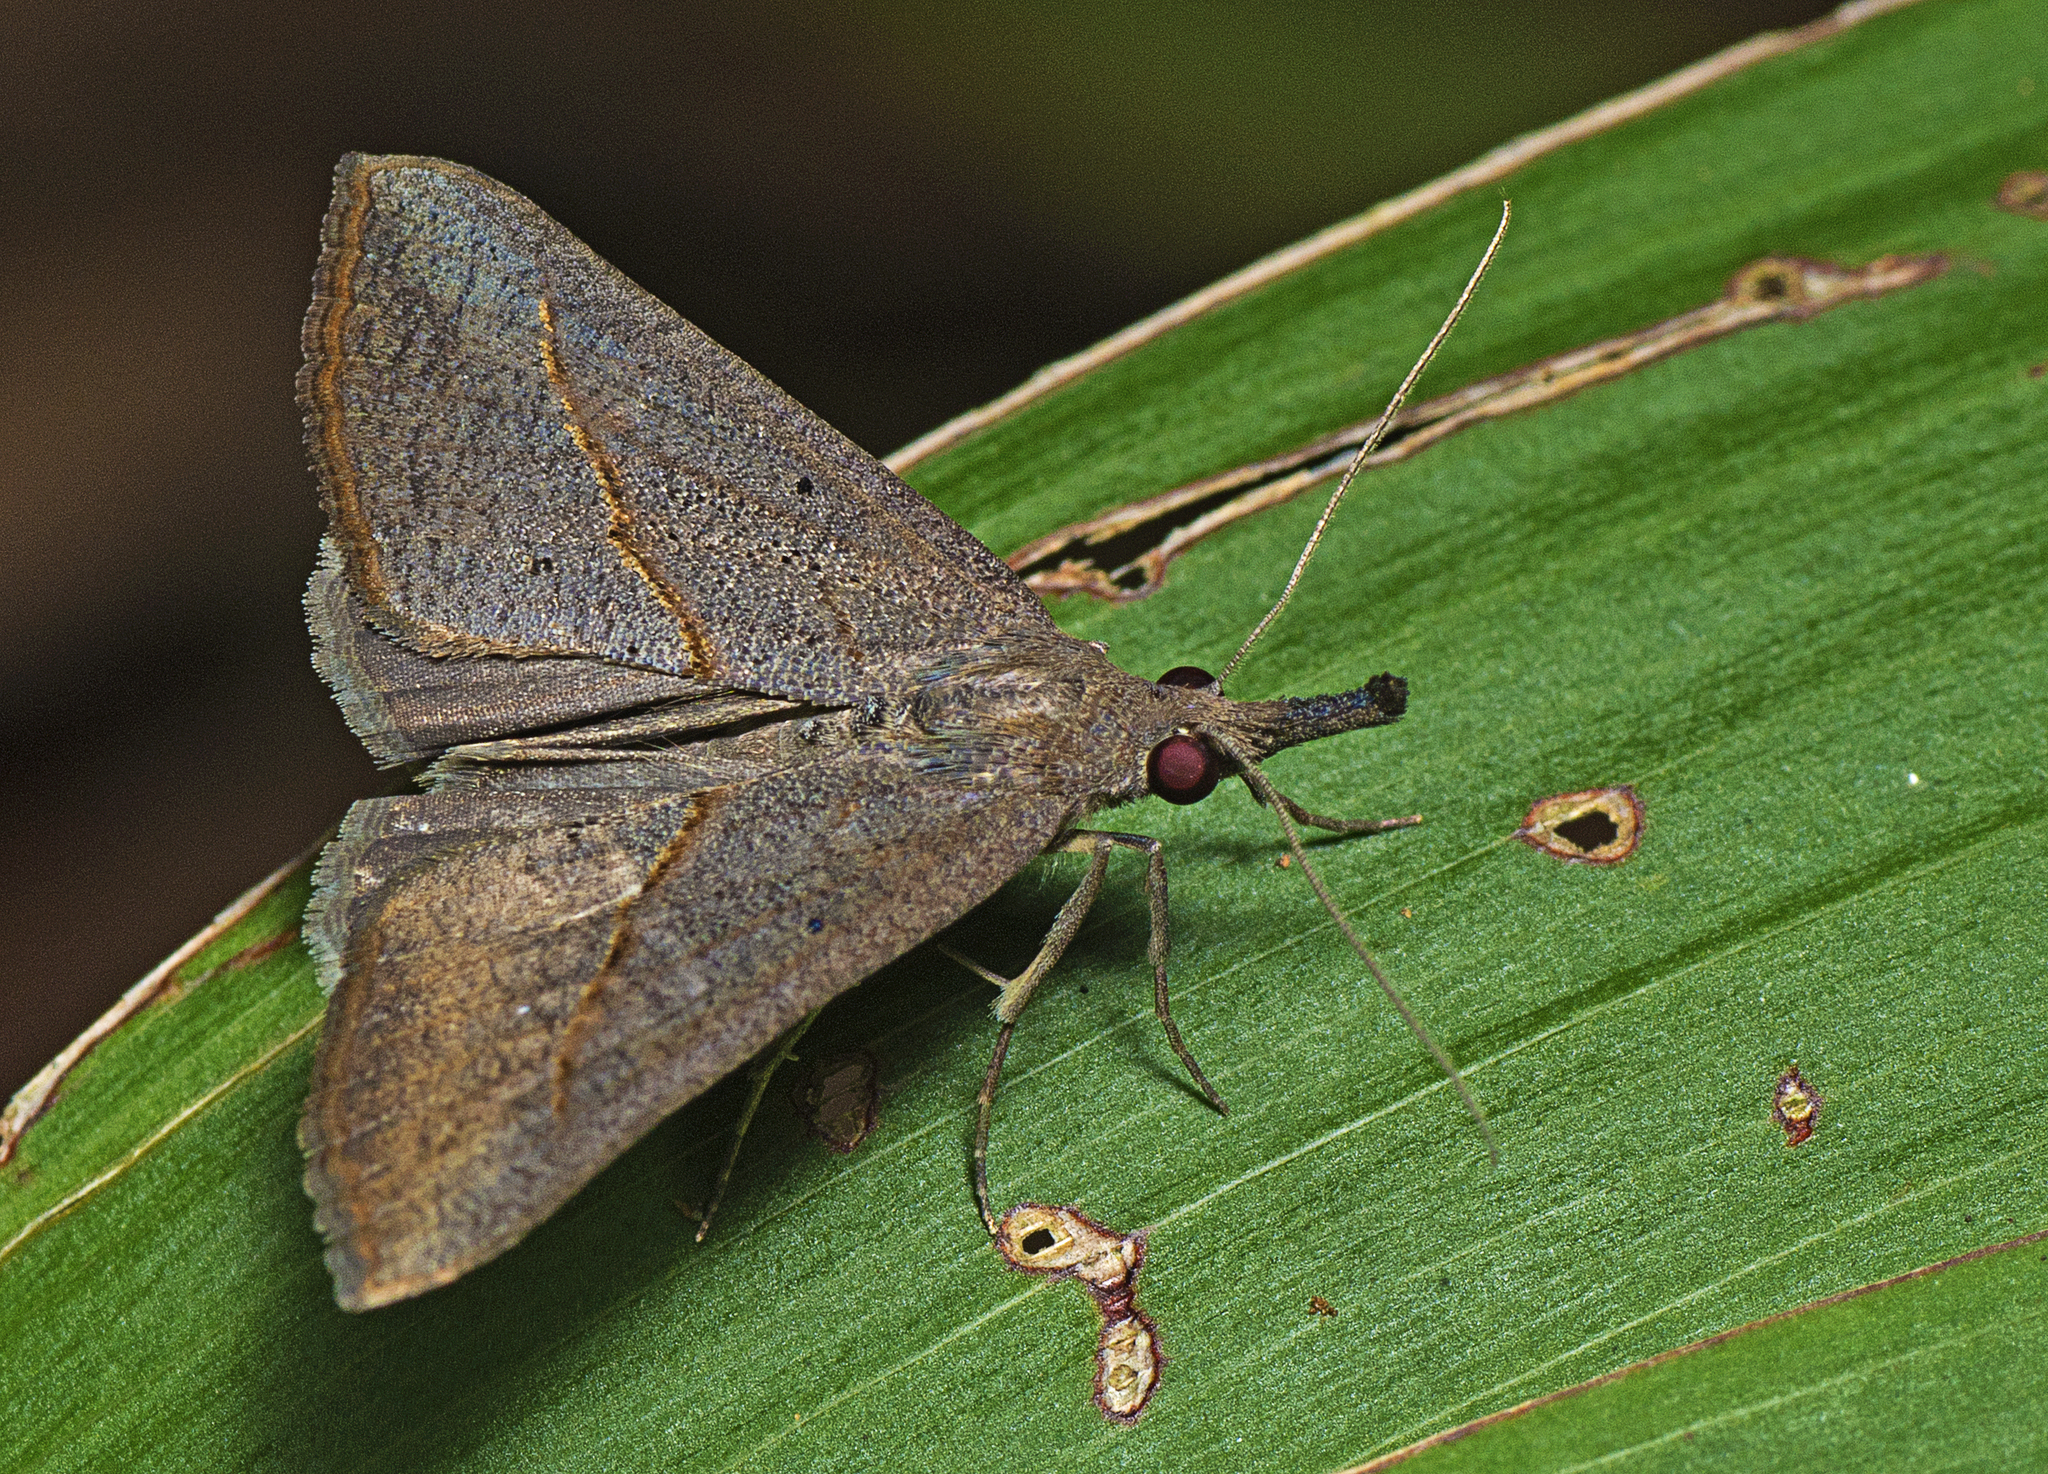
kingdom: Animalia
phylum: Arthropoda
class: Insecta
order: Lepidoptera
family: Erebidae
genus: Hypena
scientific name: Hypena lividalis
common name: Chevron snout
